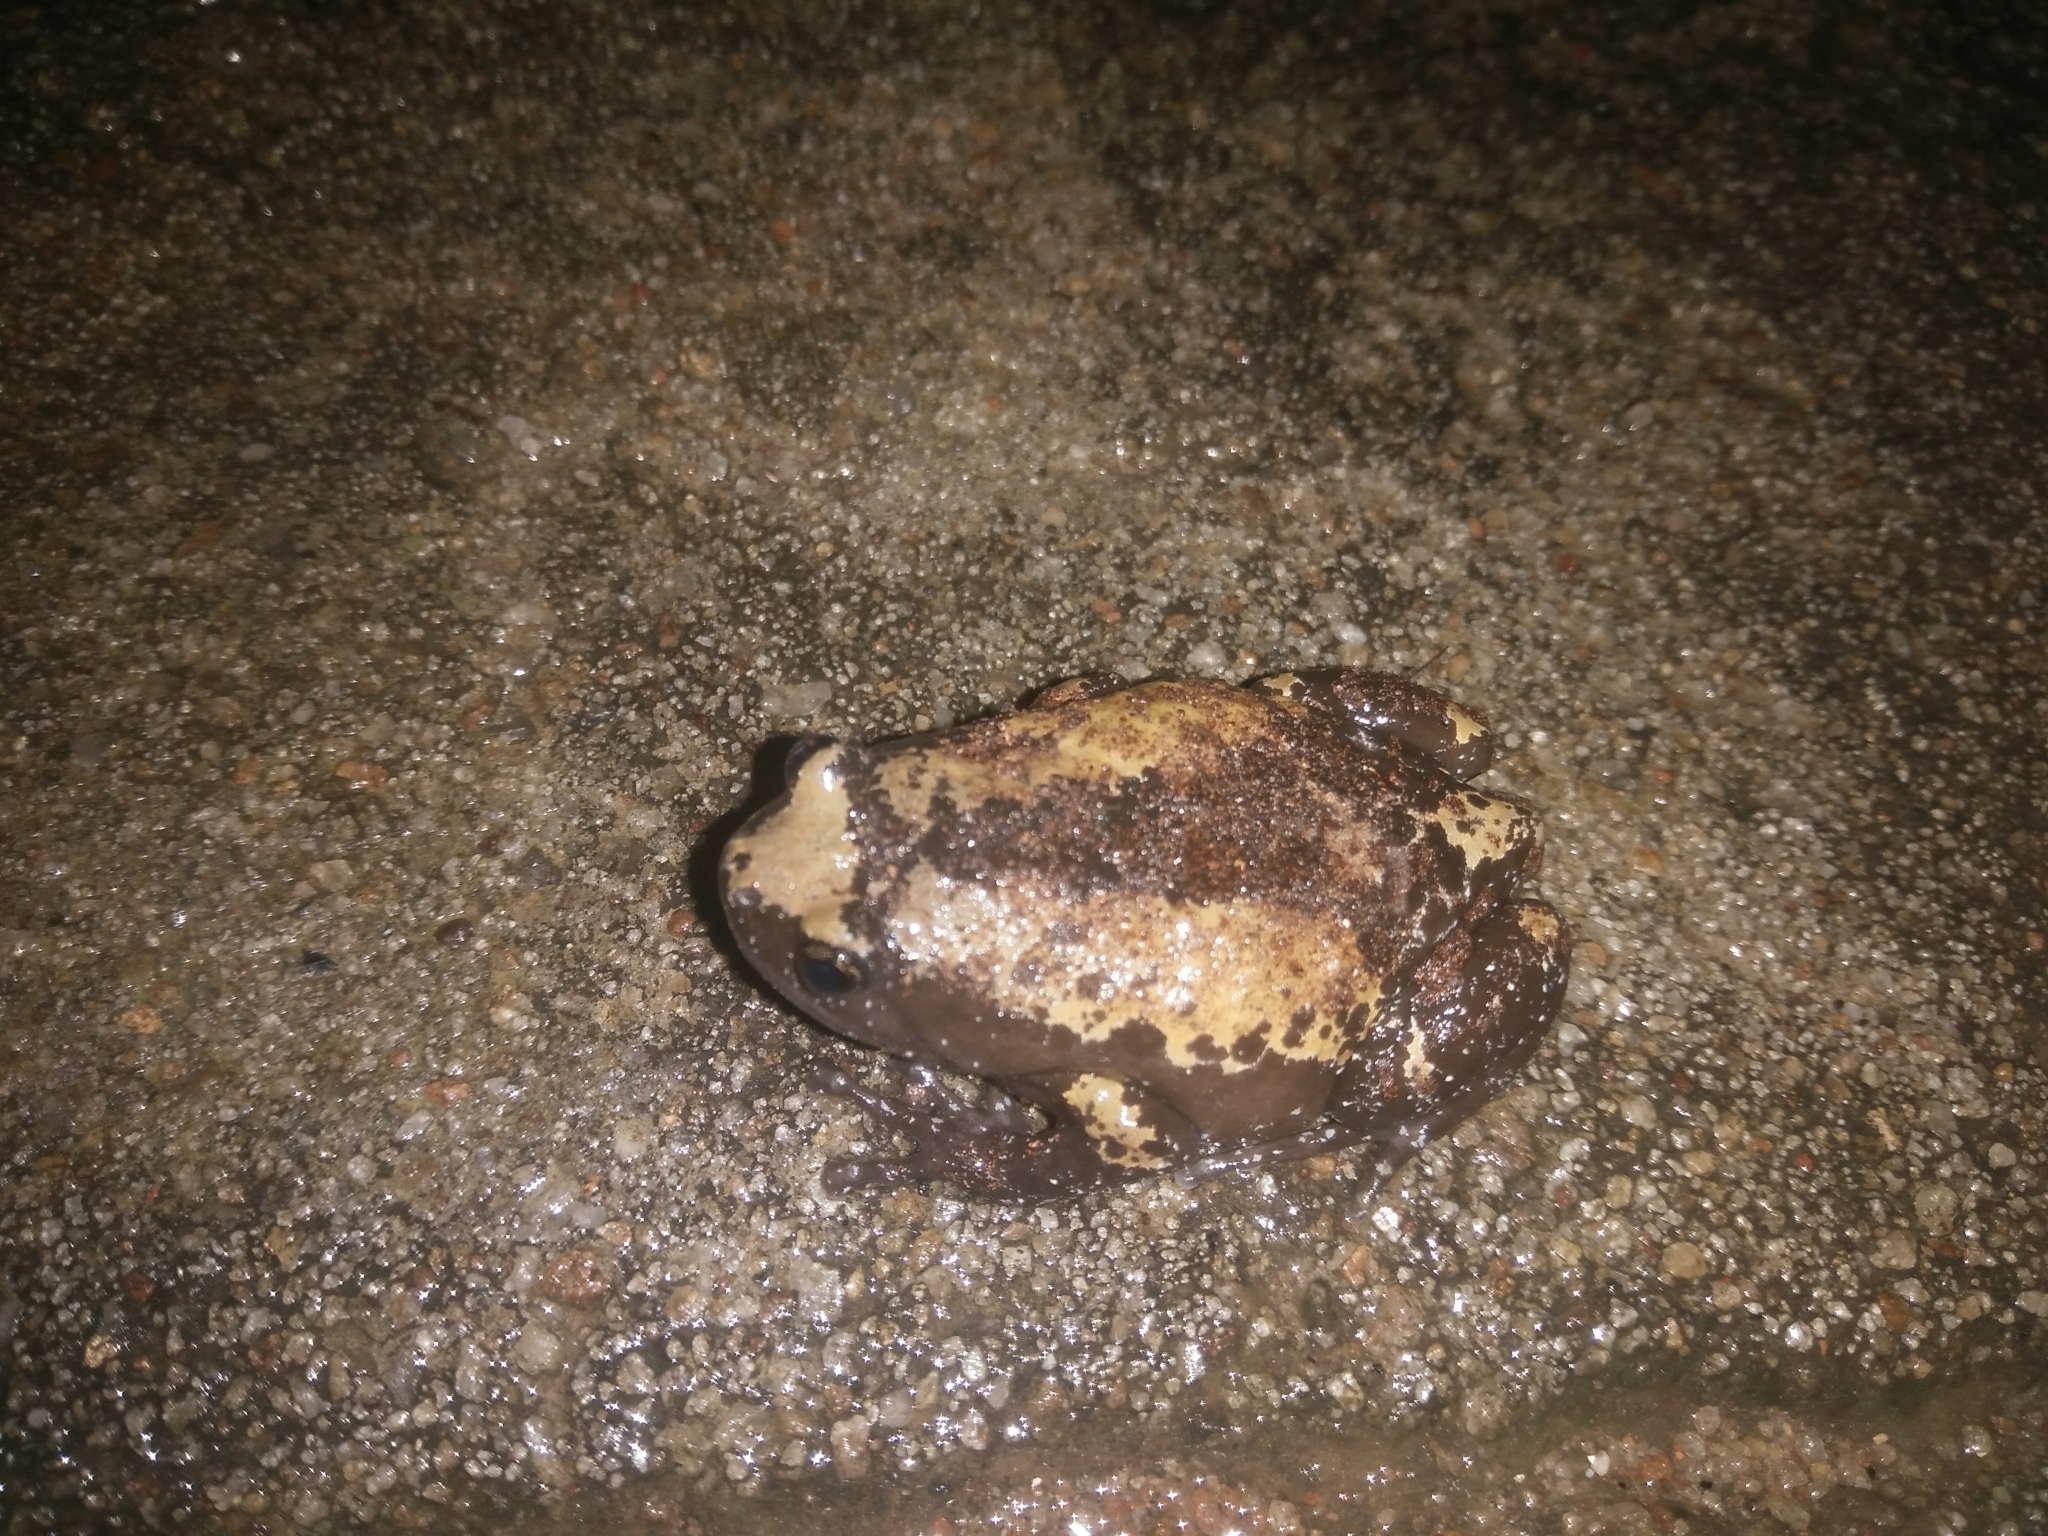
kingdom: Animalia
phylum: Chordata
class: Amphibia
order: Anura
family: Microhylidae
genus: Uperodon
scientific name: Uperodon triangularis
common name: Malabar dot frog
